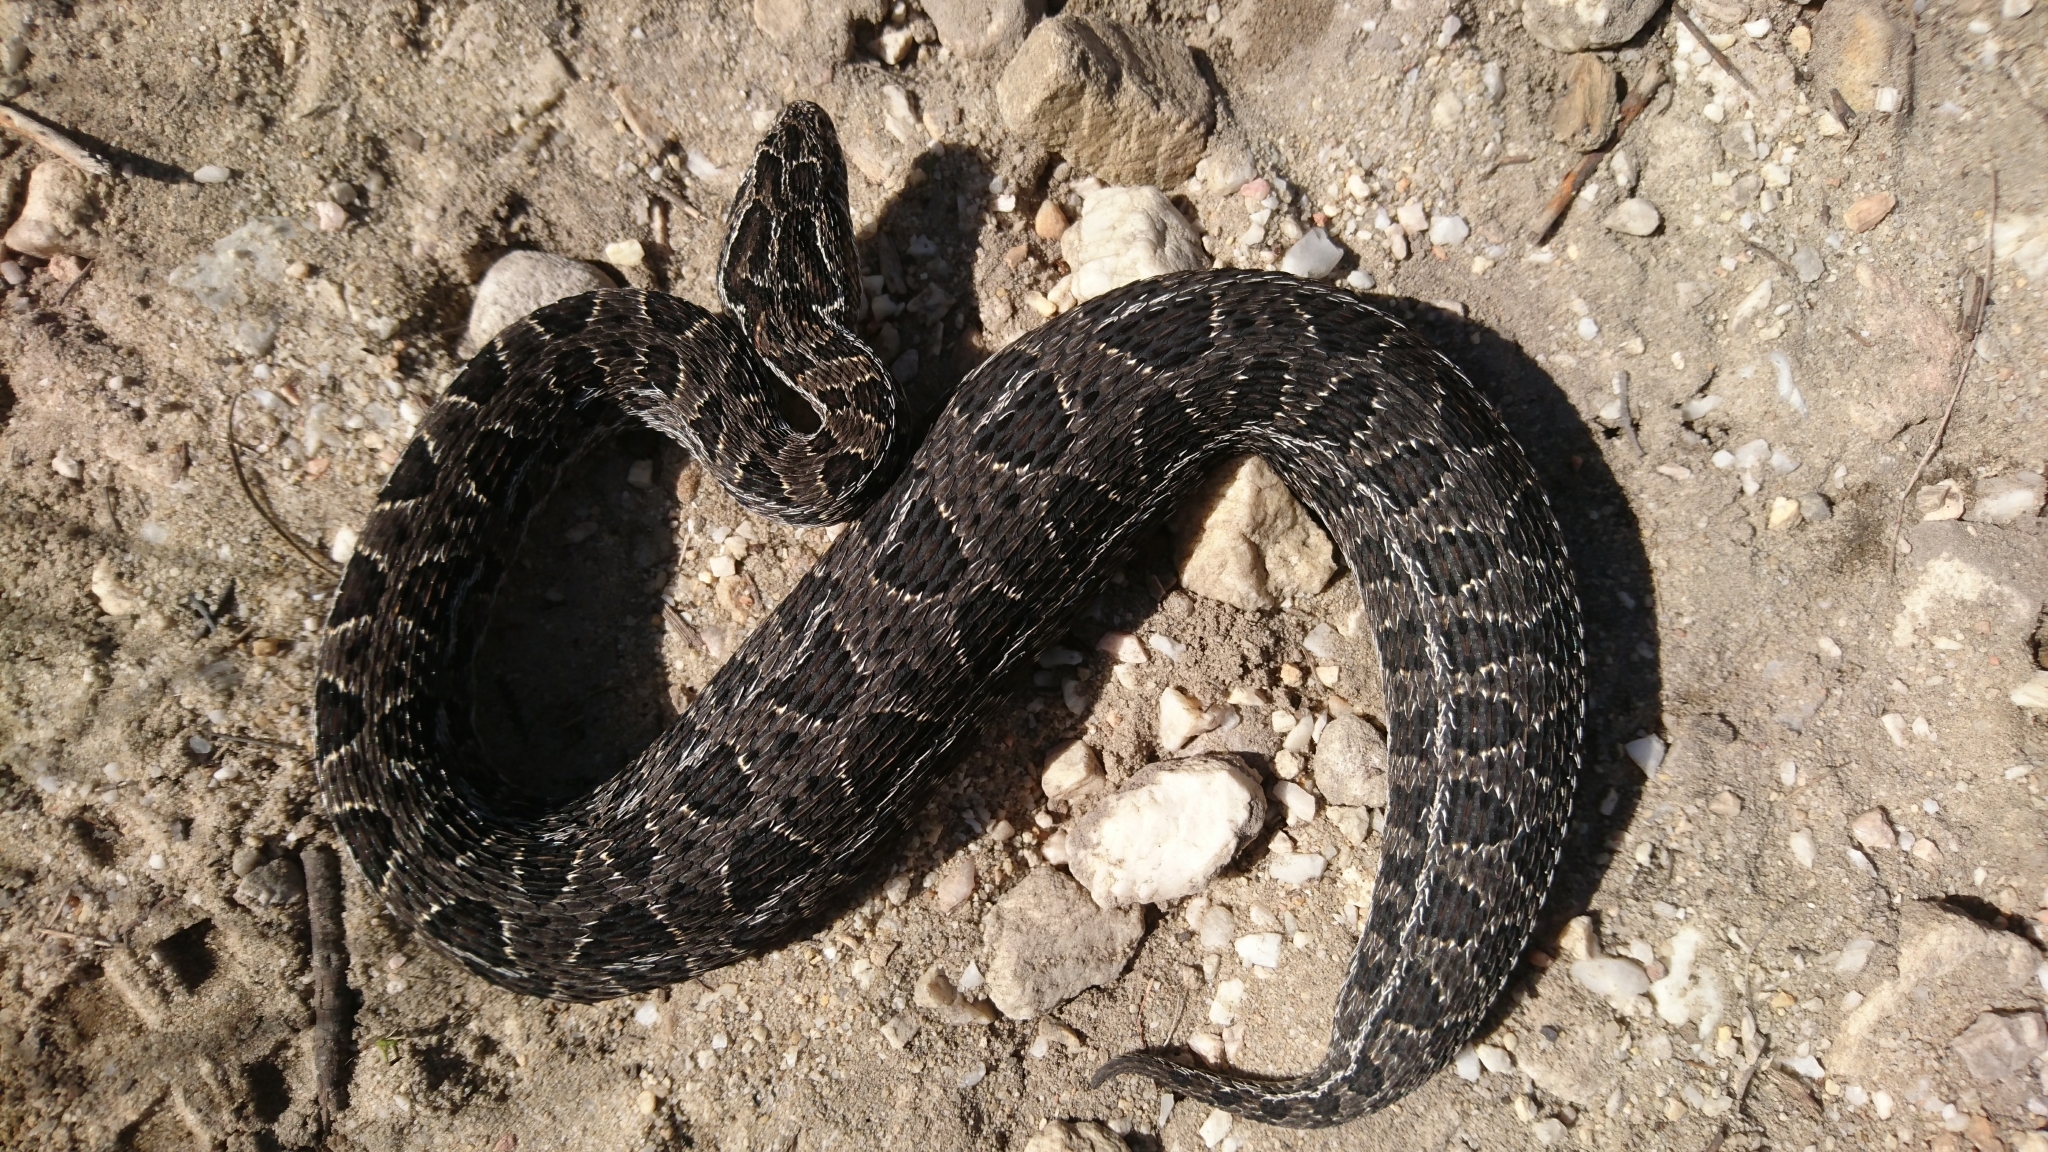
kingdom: Animalia
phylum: Chordata
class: Squamata
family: Viperidae
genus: Bitis
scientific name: Bitis atropos
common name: Mountain adder
